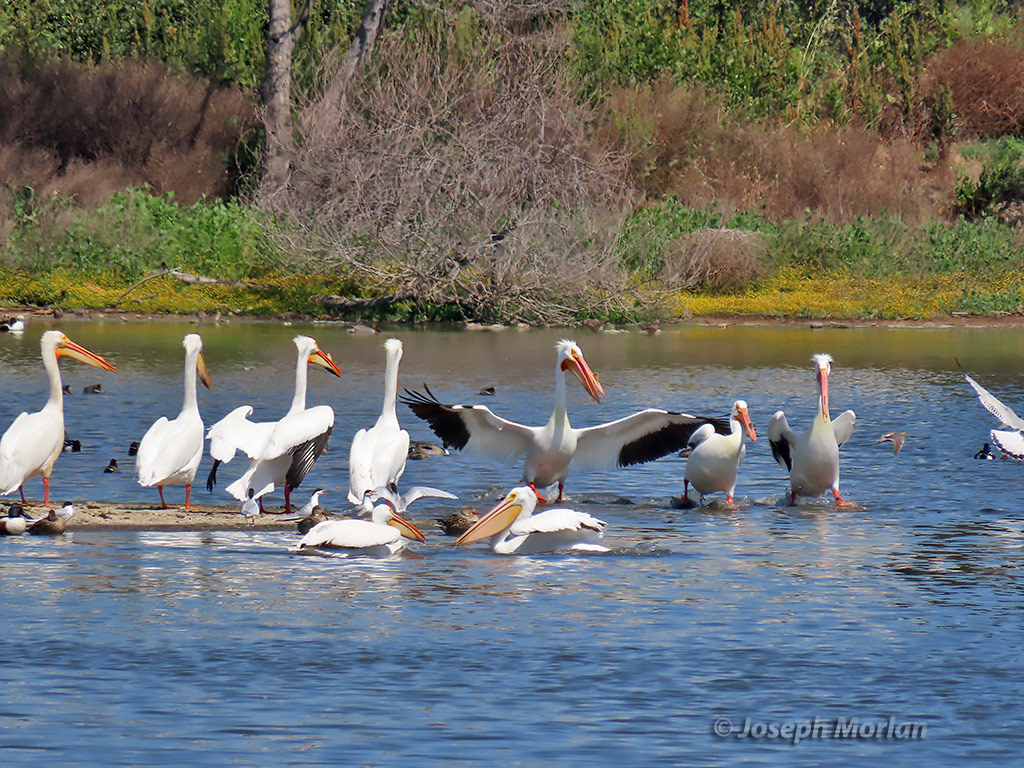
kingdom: Animalia
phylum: Chordata
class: Aves
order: Pelecaniformes
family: Pelecanidae
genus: Pelecanus
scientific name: Pelecanus erythrorhynchos
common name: American white pelican
